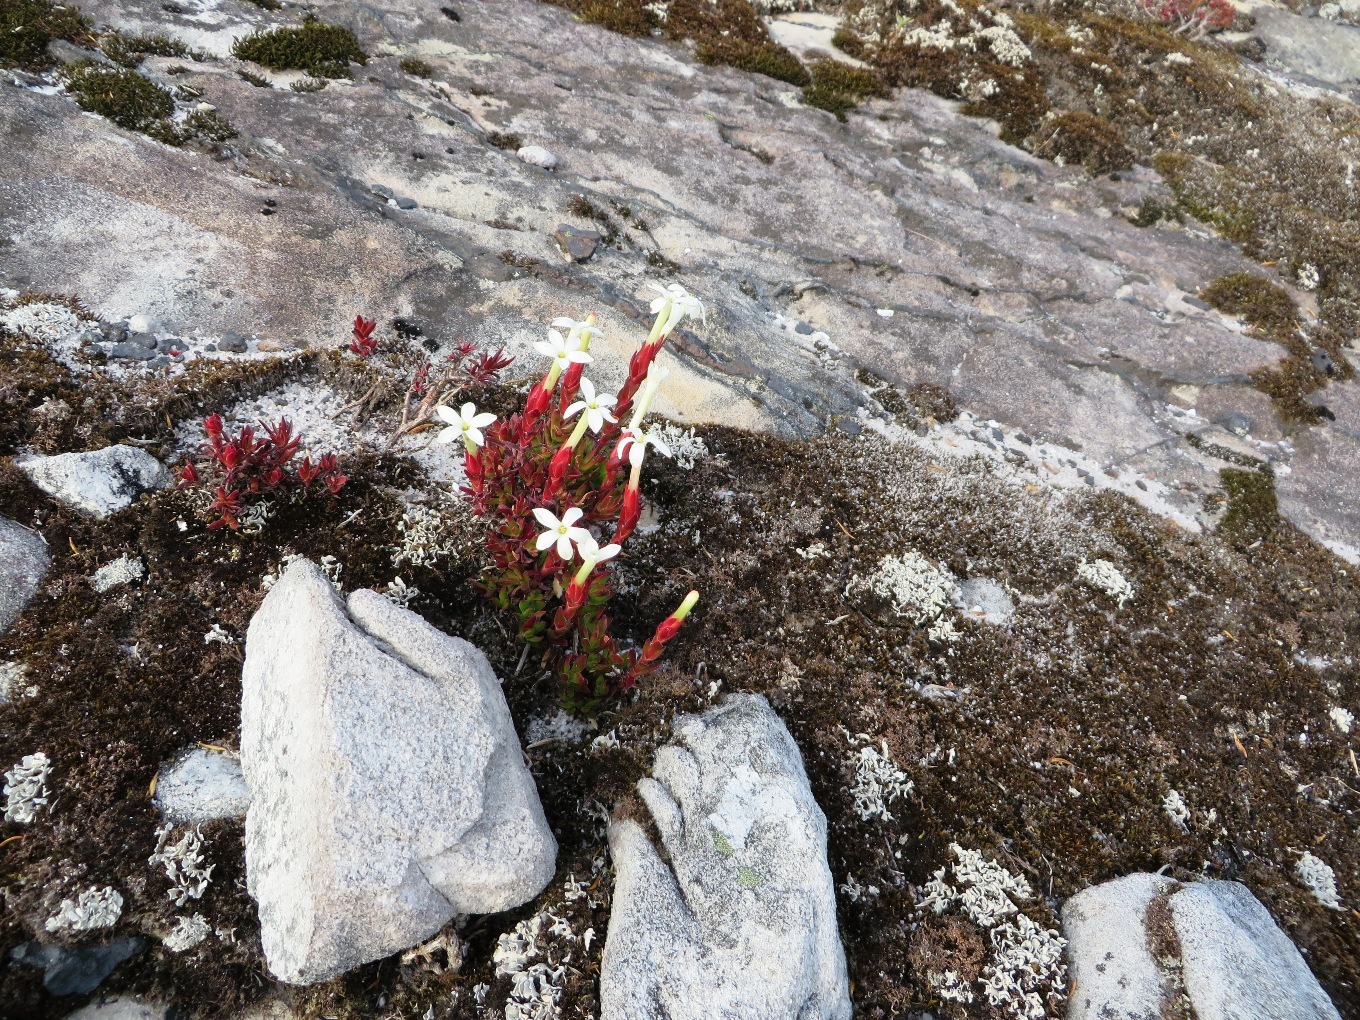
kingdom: Plantae
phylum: Tracheophyta
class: Magnoliopsida
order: Saxifragales
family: Crassulaceae
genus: Crassula
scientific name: Crassula obtusa
